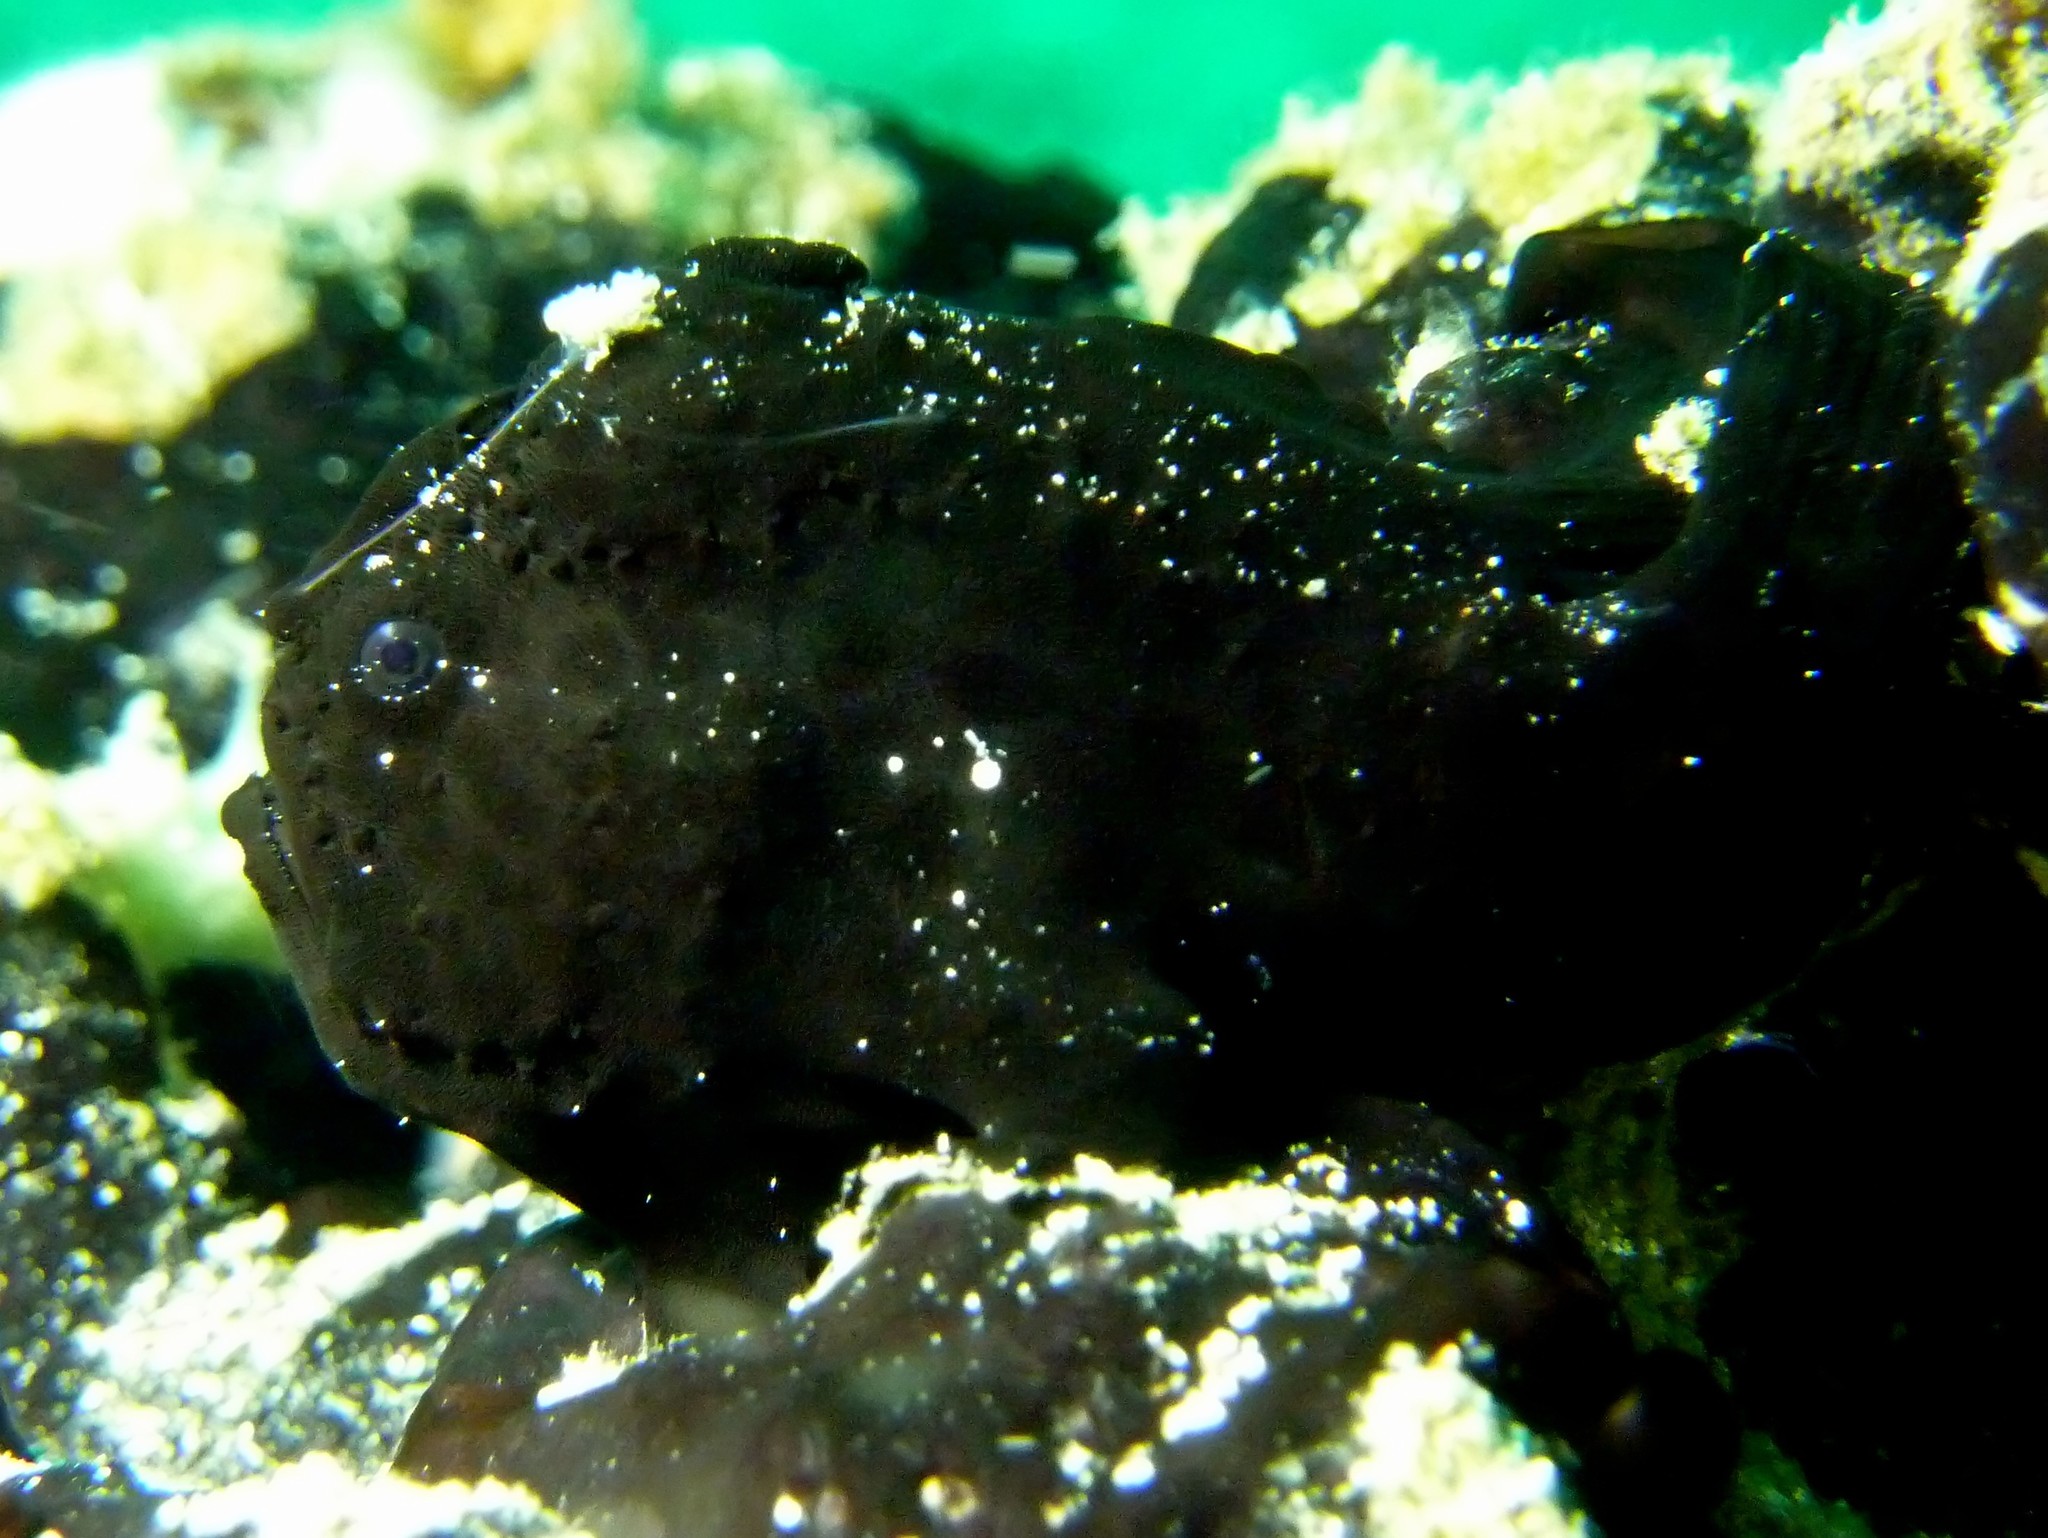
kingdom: Animalia
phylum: Chordata
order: Lophiiformes
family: Antennariidae
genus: Antennarius
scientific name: Antennarius pictus
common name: Painted frogfish
